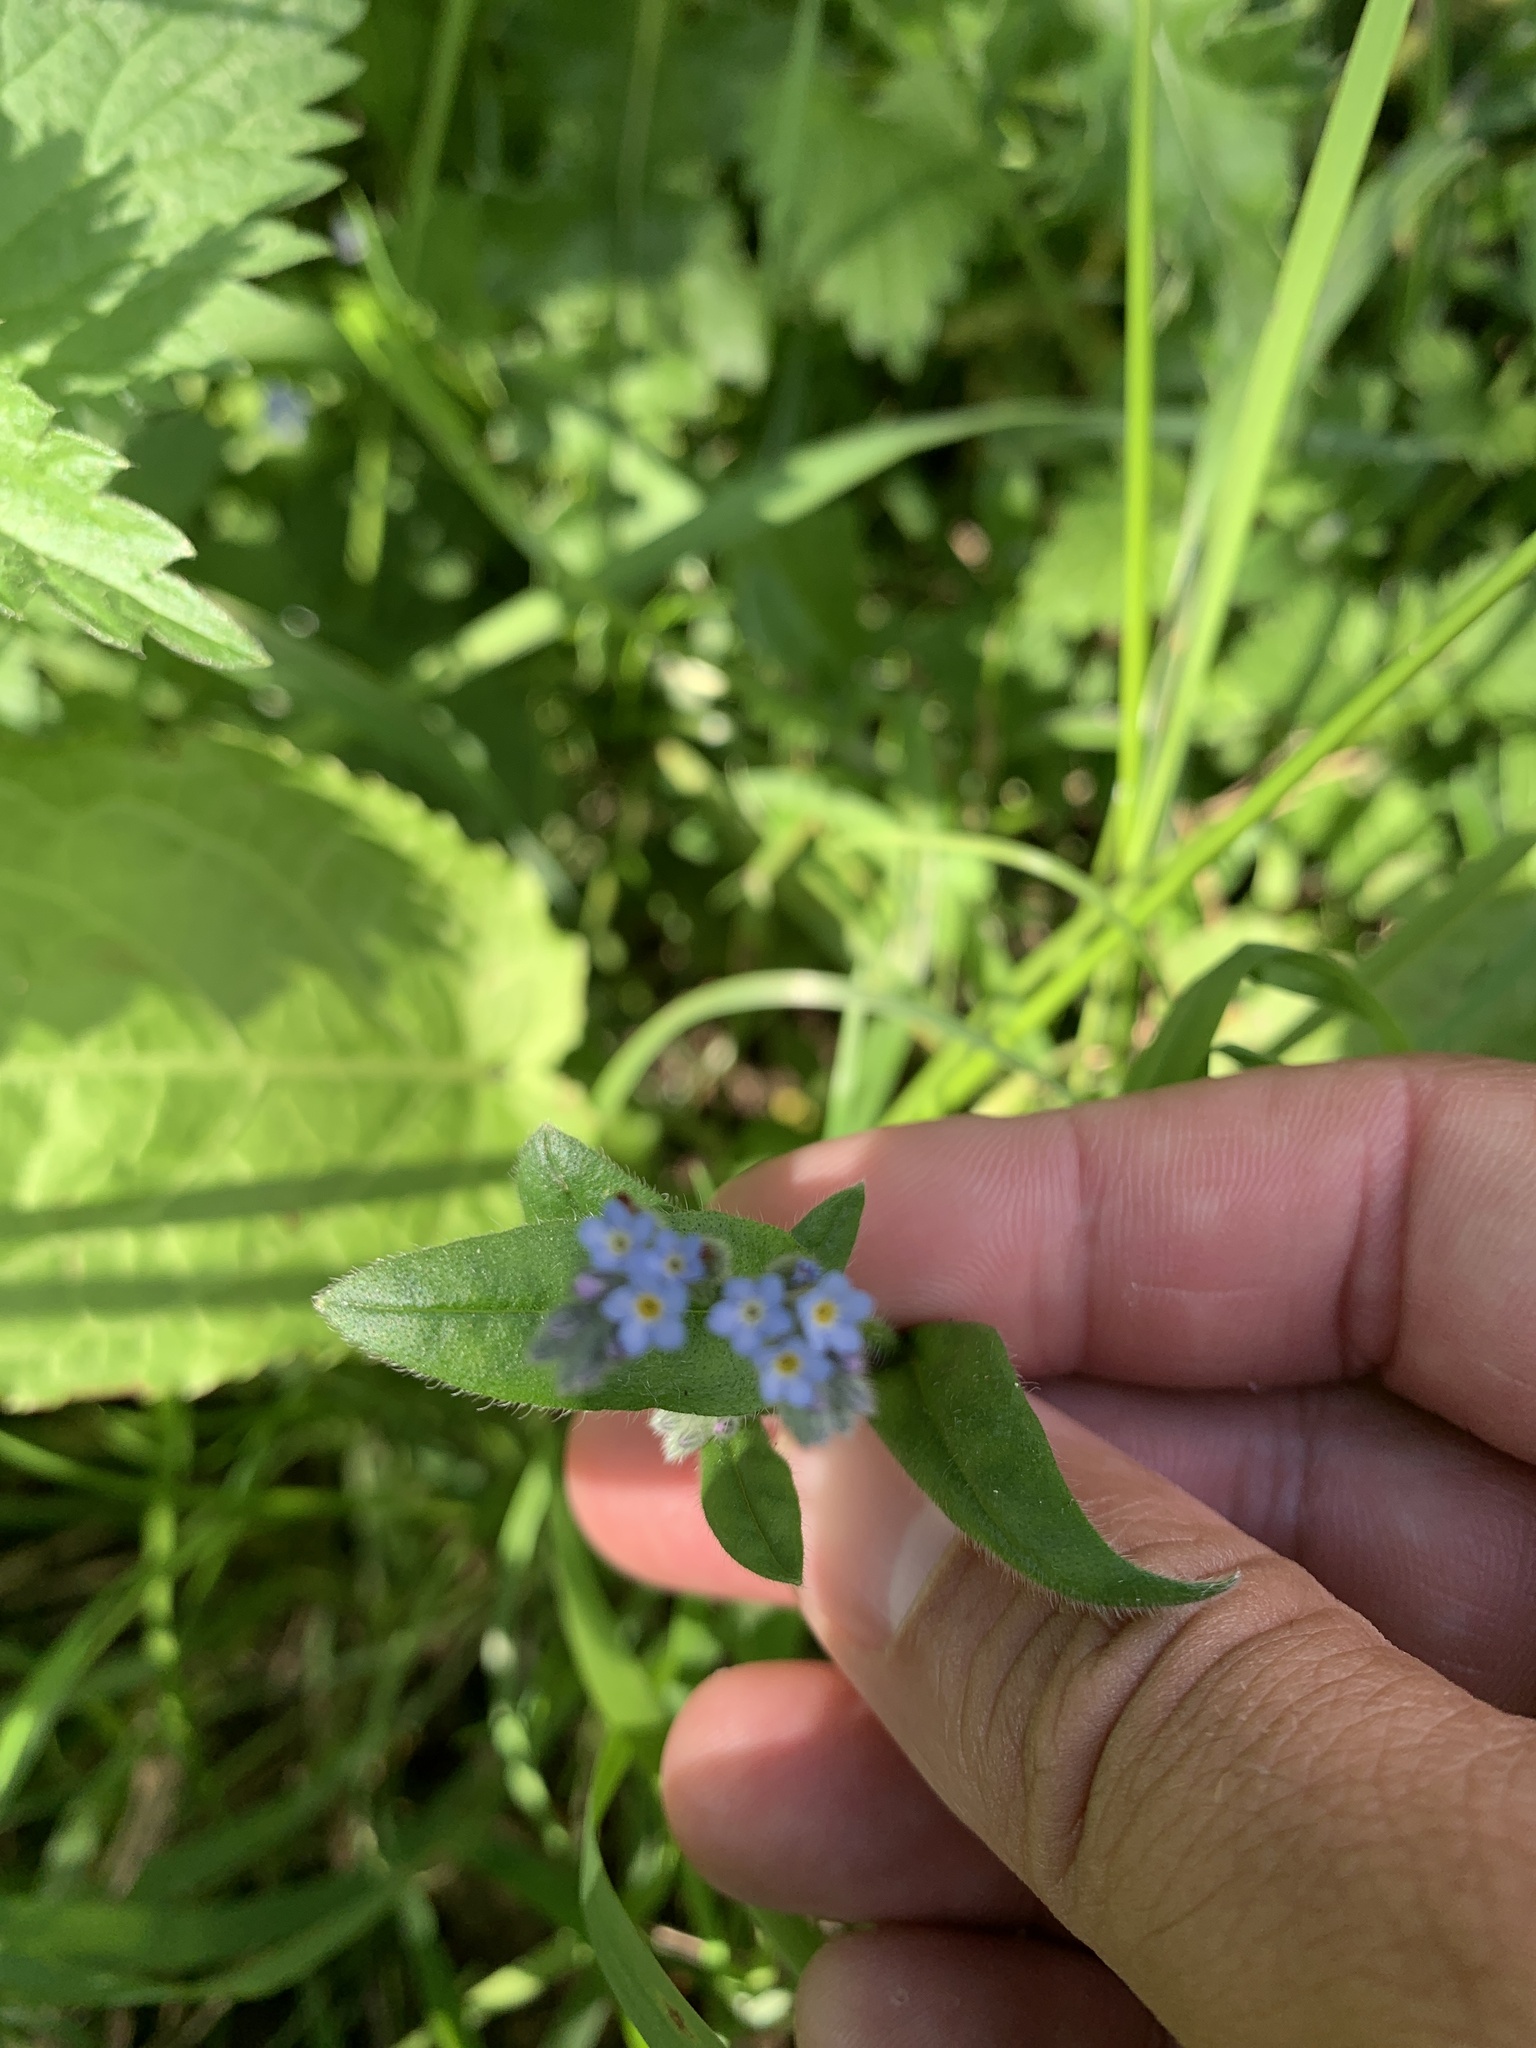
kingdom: Plantae
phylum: Tracheophyta
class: Magnoliopsida
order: Boraginales
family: Boraginaceae
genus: Myosotis
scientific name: Myosotis arvensis
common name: Field forget-me-not
